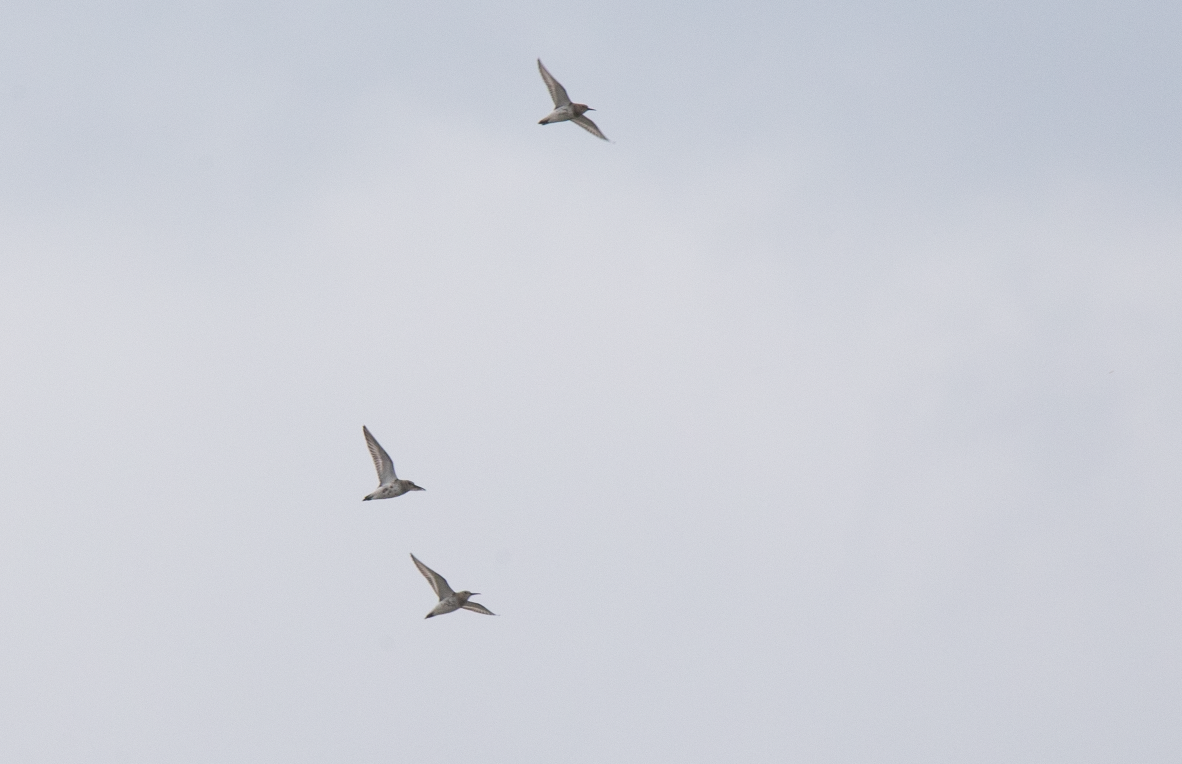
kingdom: Animalia
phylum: Chordata
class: Aves
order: Charadriiformes
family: Scolopacidae
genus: Calidris
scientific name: Calidris alpina
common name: Dunlin
